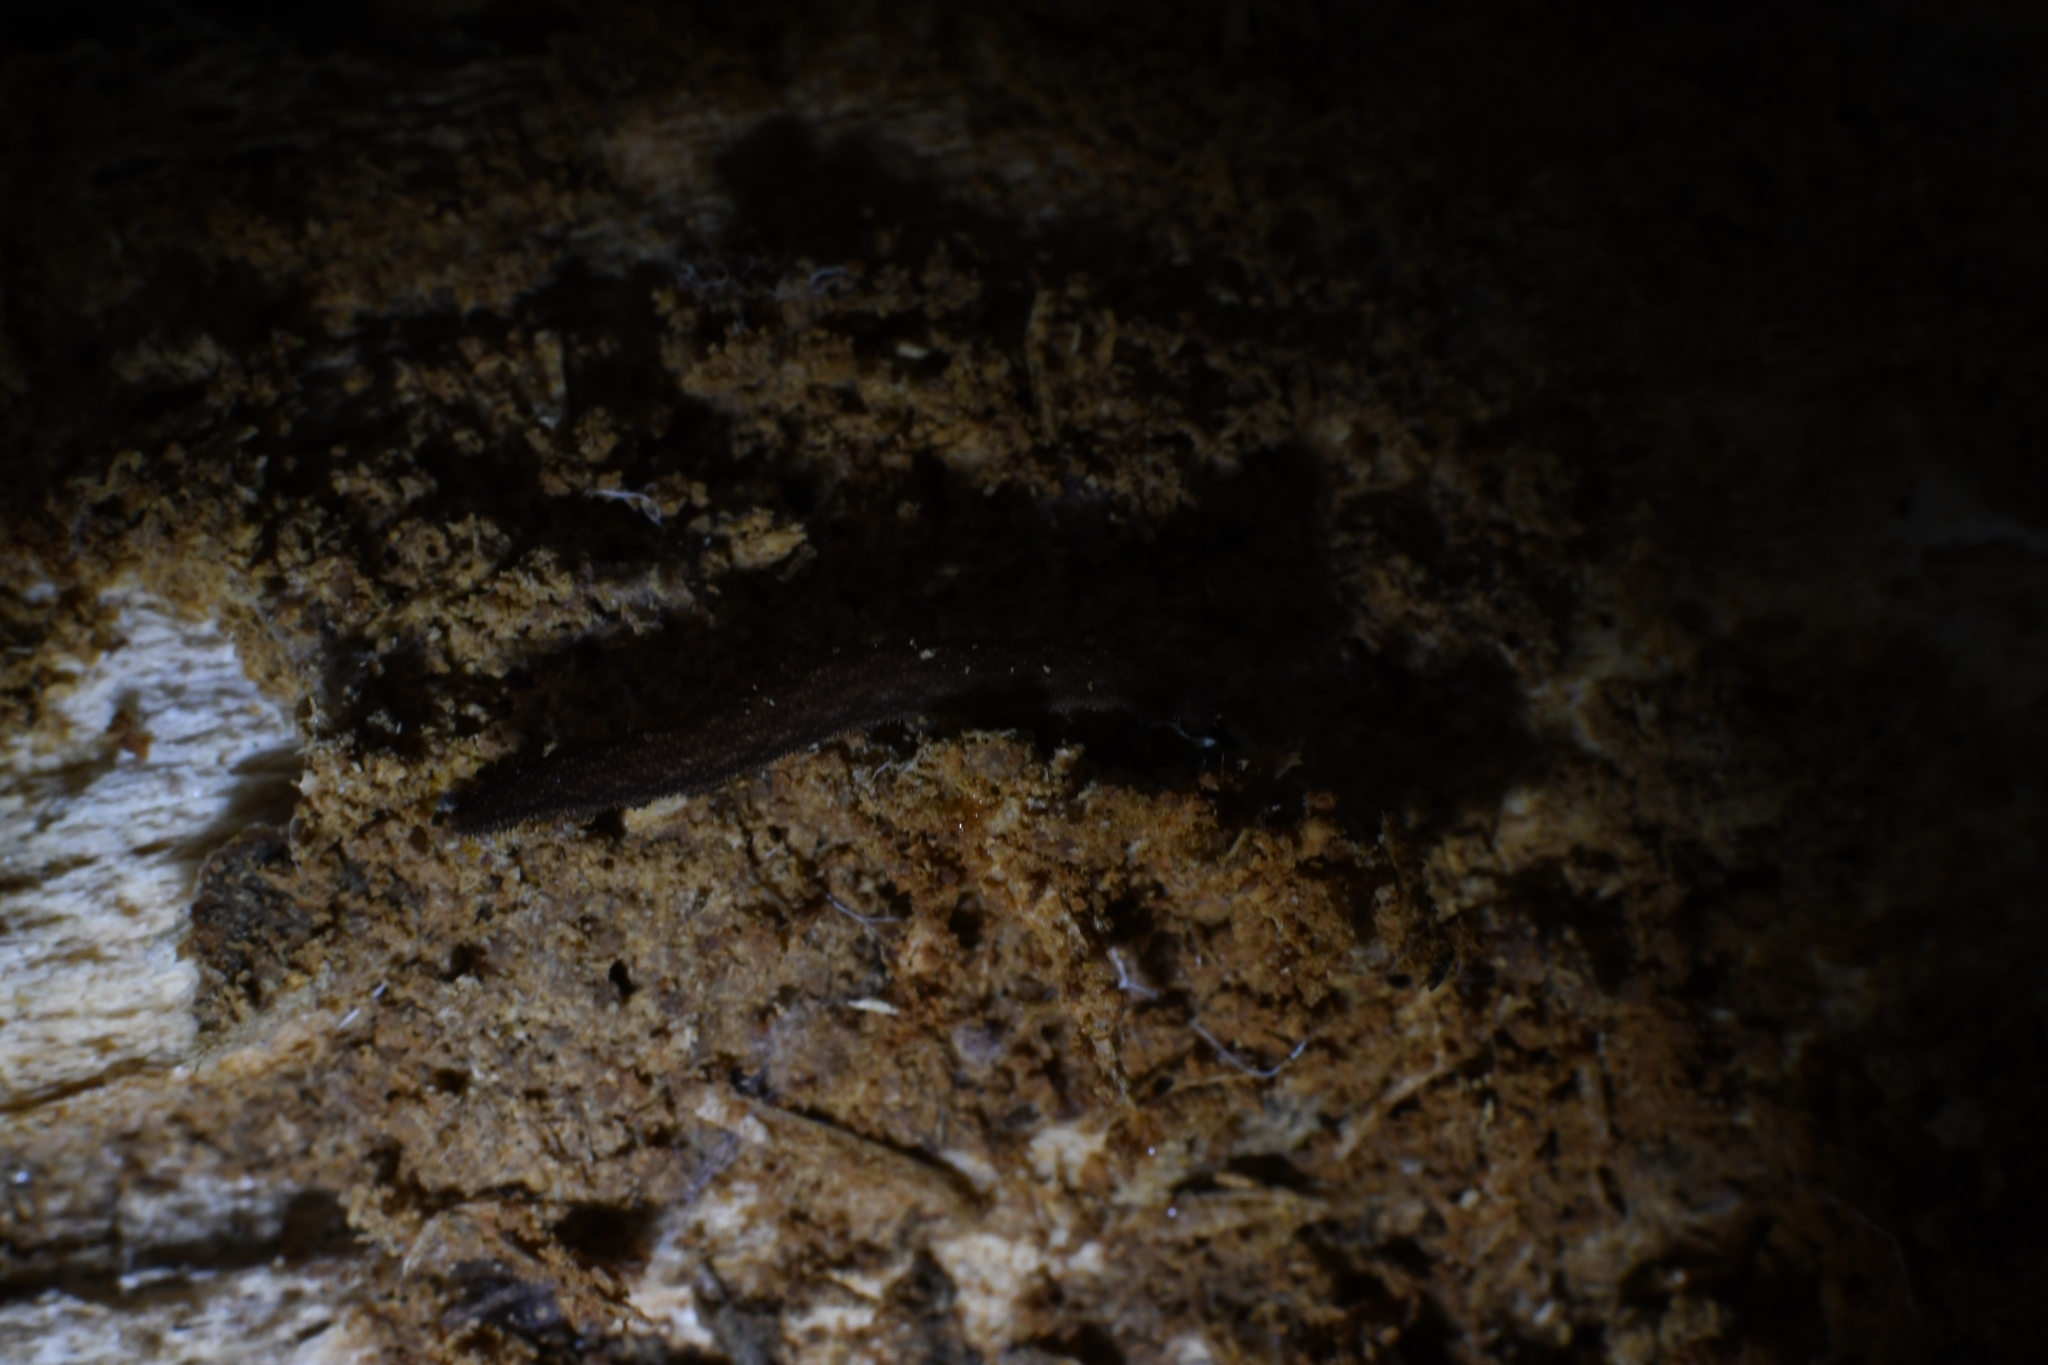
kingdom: Animalia
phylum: Onychophora
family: Peripatopsidae
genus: Kumbadjena
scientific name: Kumbadjena extrema
